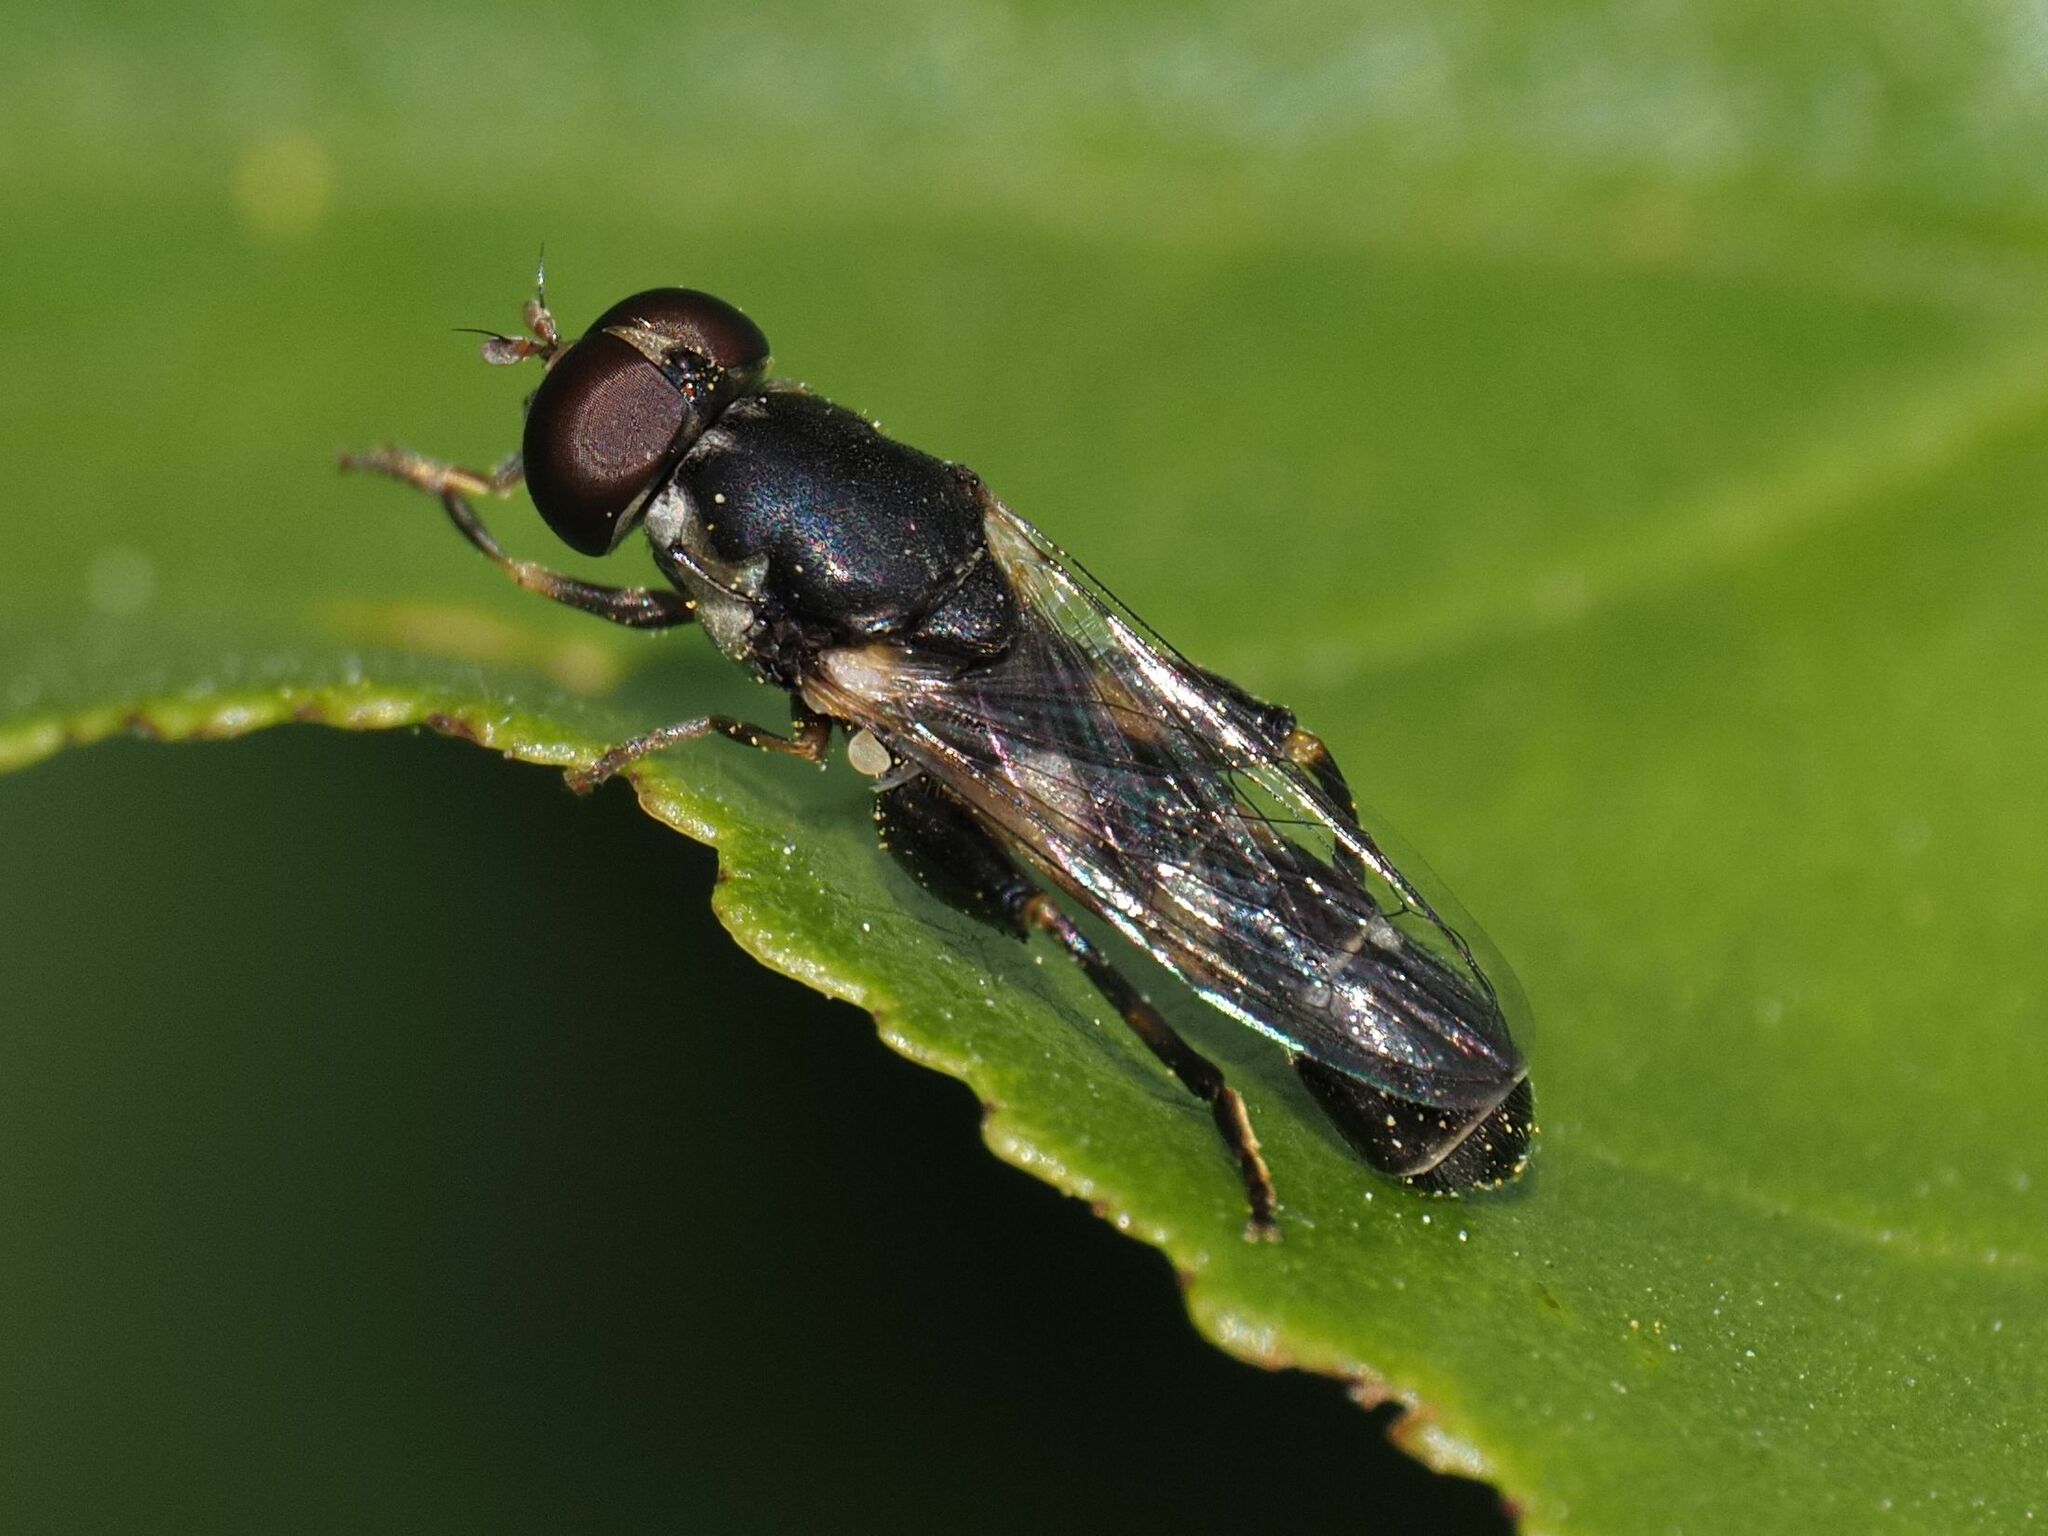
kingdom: Animalia
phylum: Arthropoda
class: Insecta
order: Diptera
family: Syrphidae
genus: Syritta
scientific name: Syritta pipiens
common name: Hover fly
